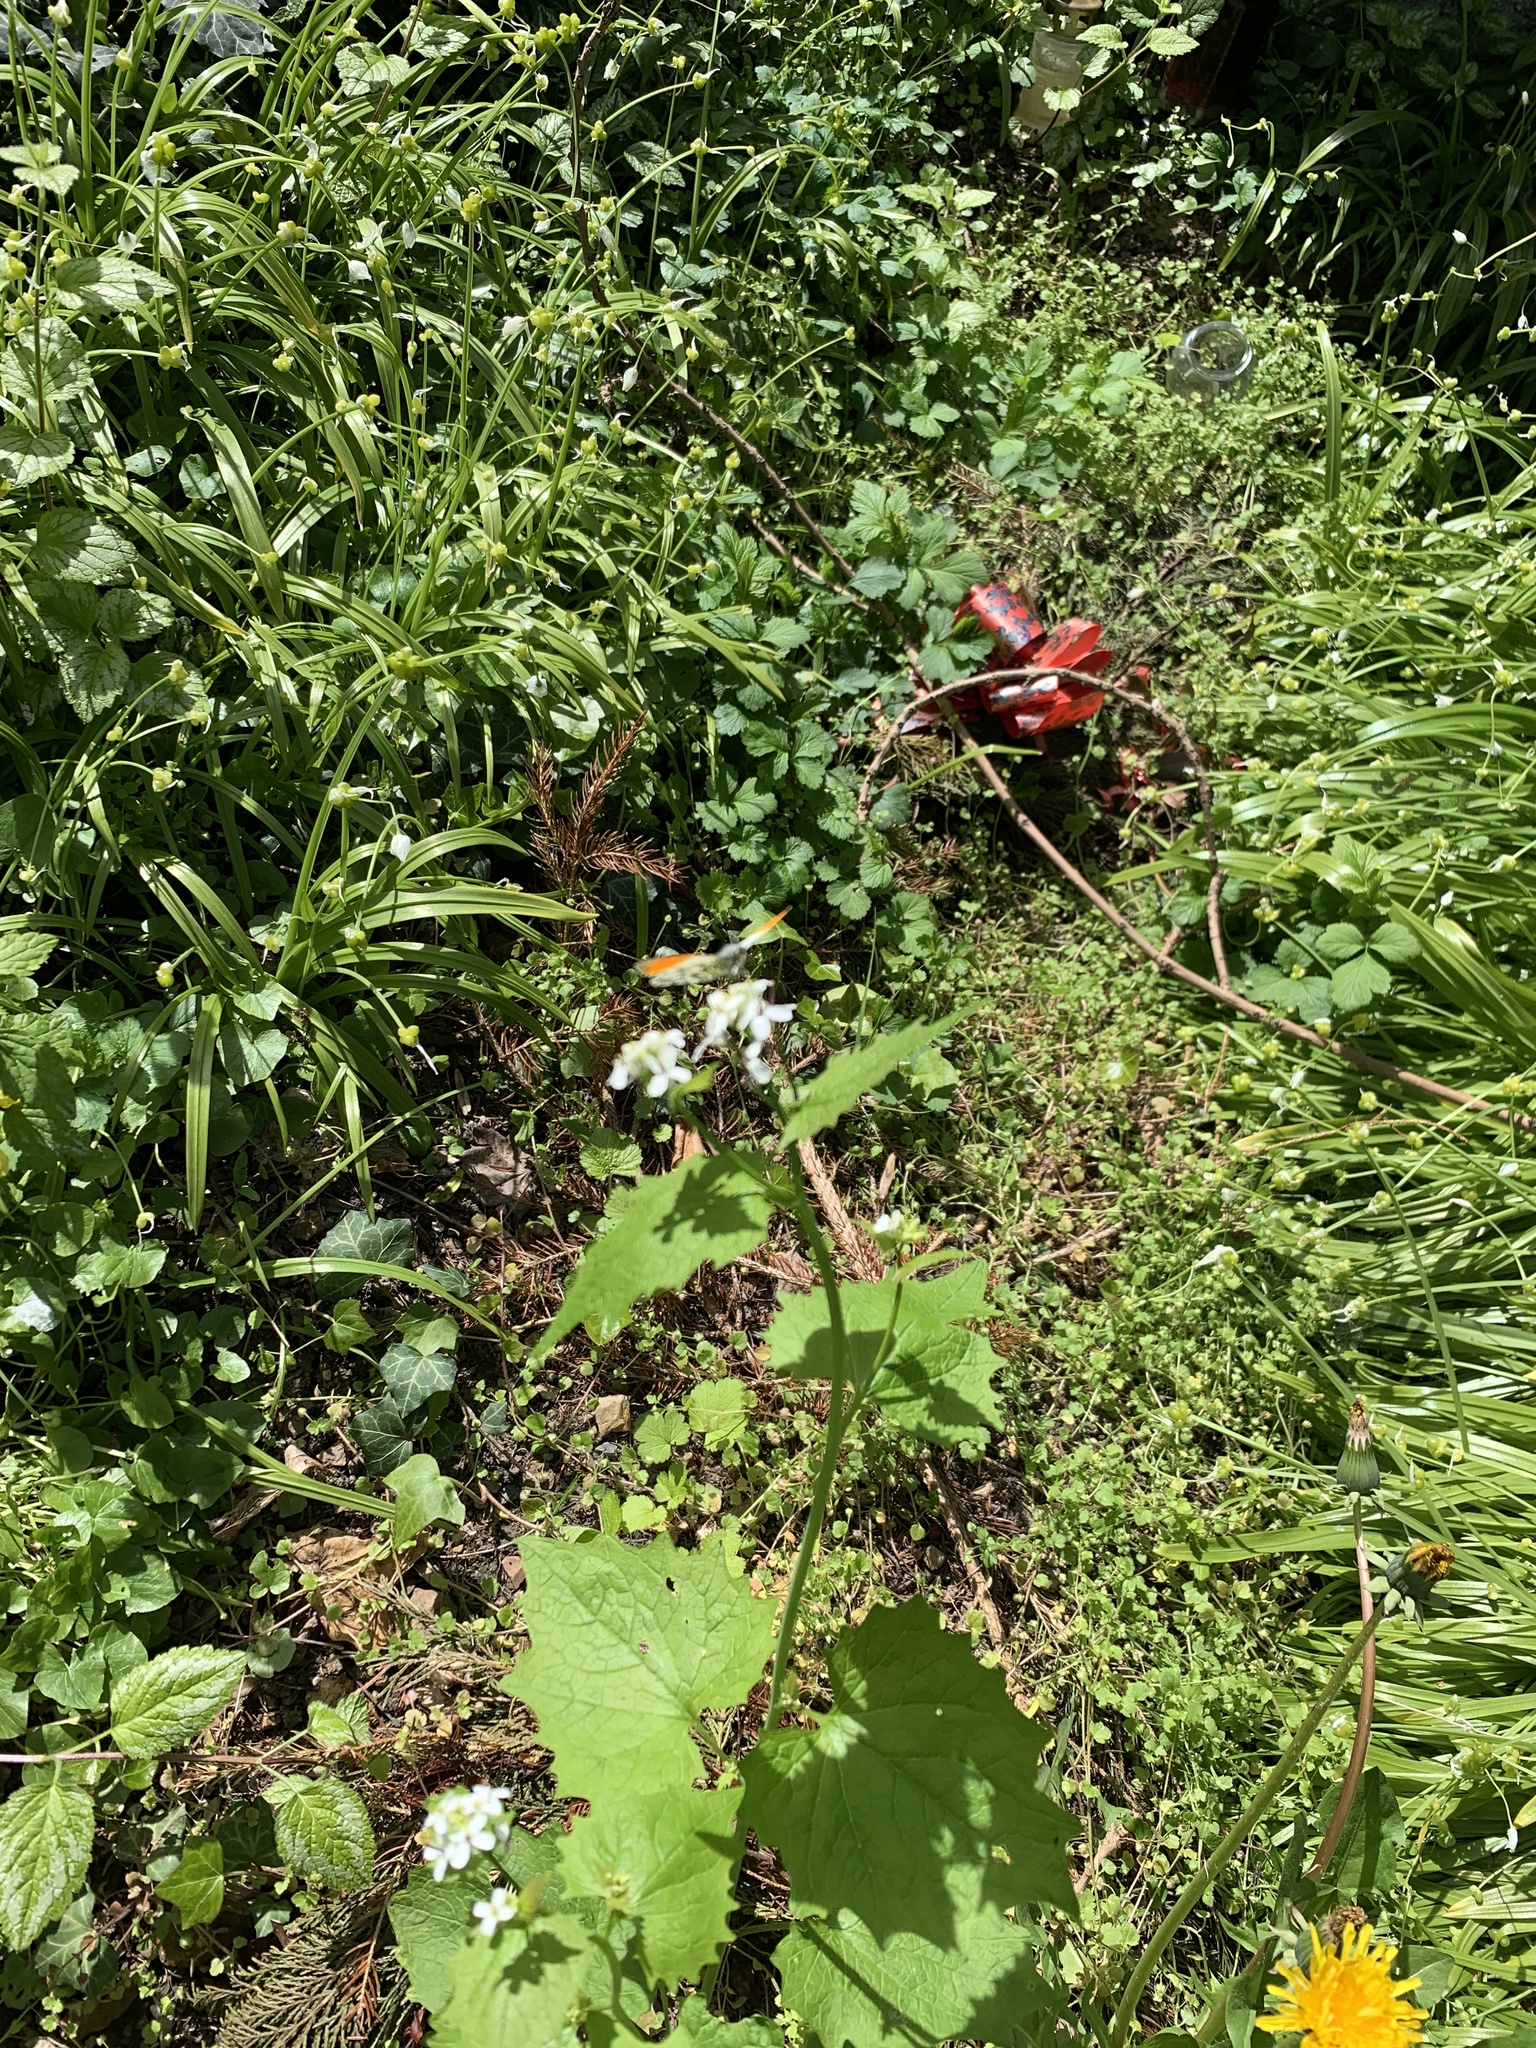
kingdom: Plantae
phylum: Tracheophyta
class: Magnoliopsida
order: Brassicales
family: Brassicaceae
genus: Alliaria
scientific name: Alliaria petiolata
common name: Garlic mustard
